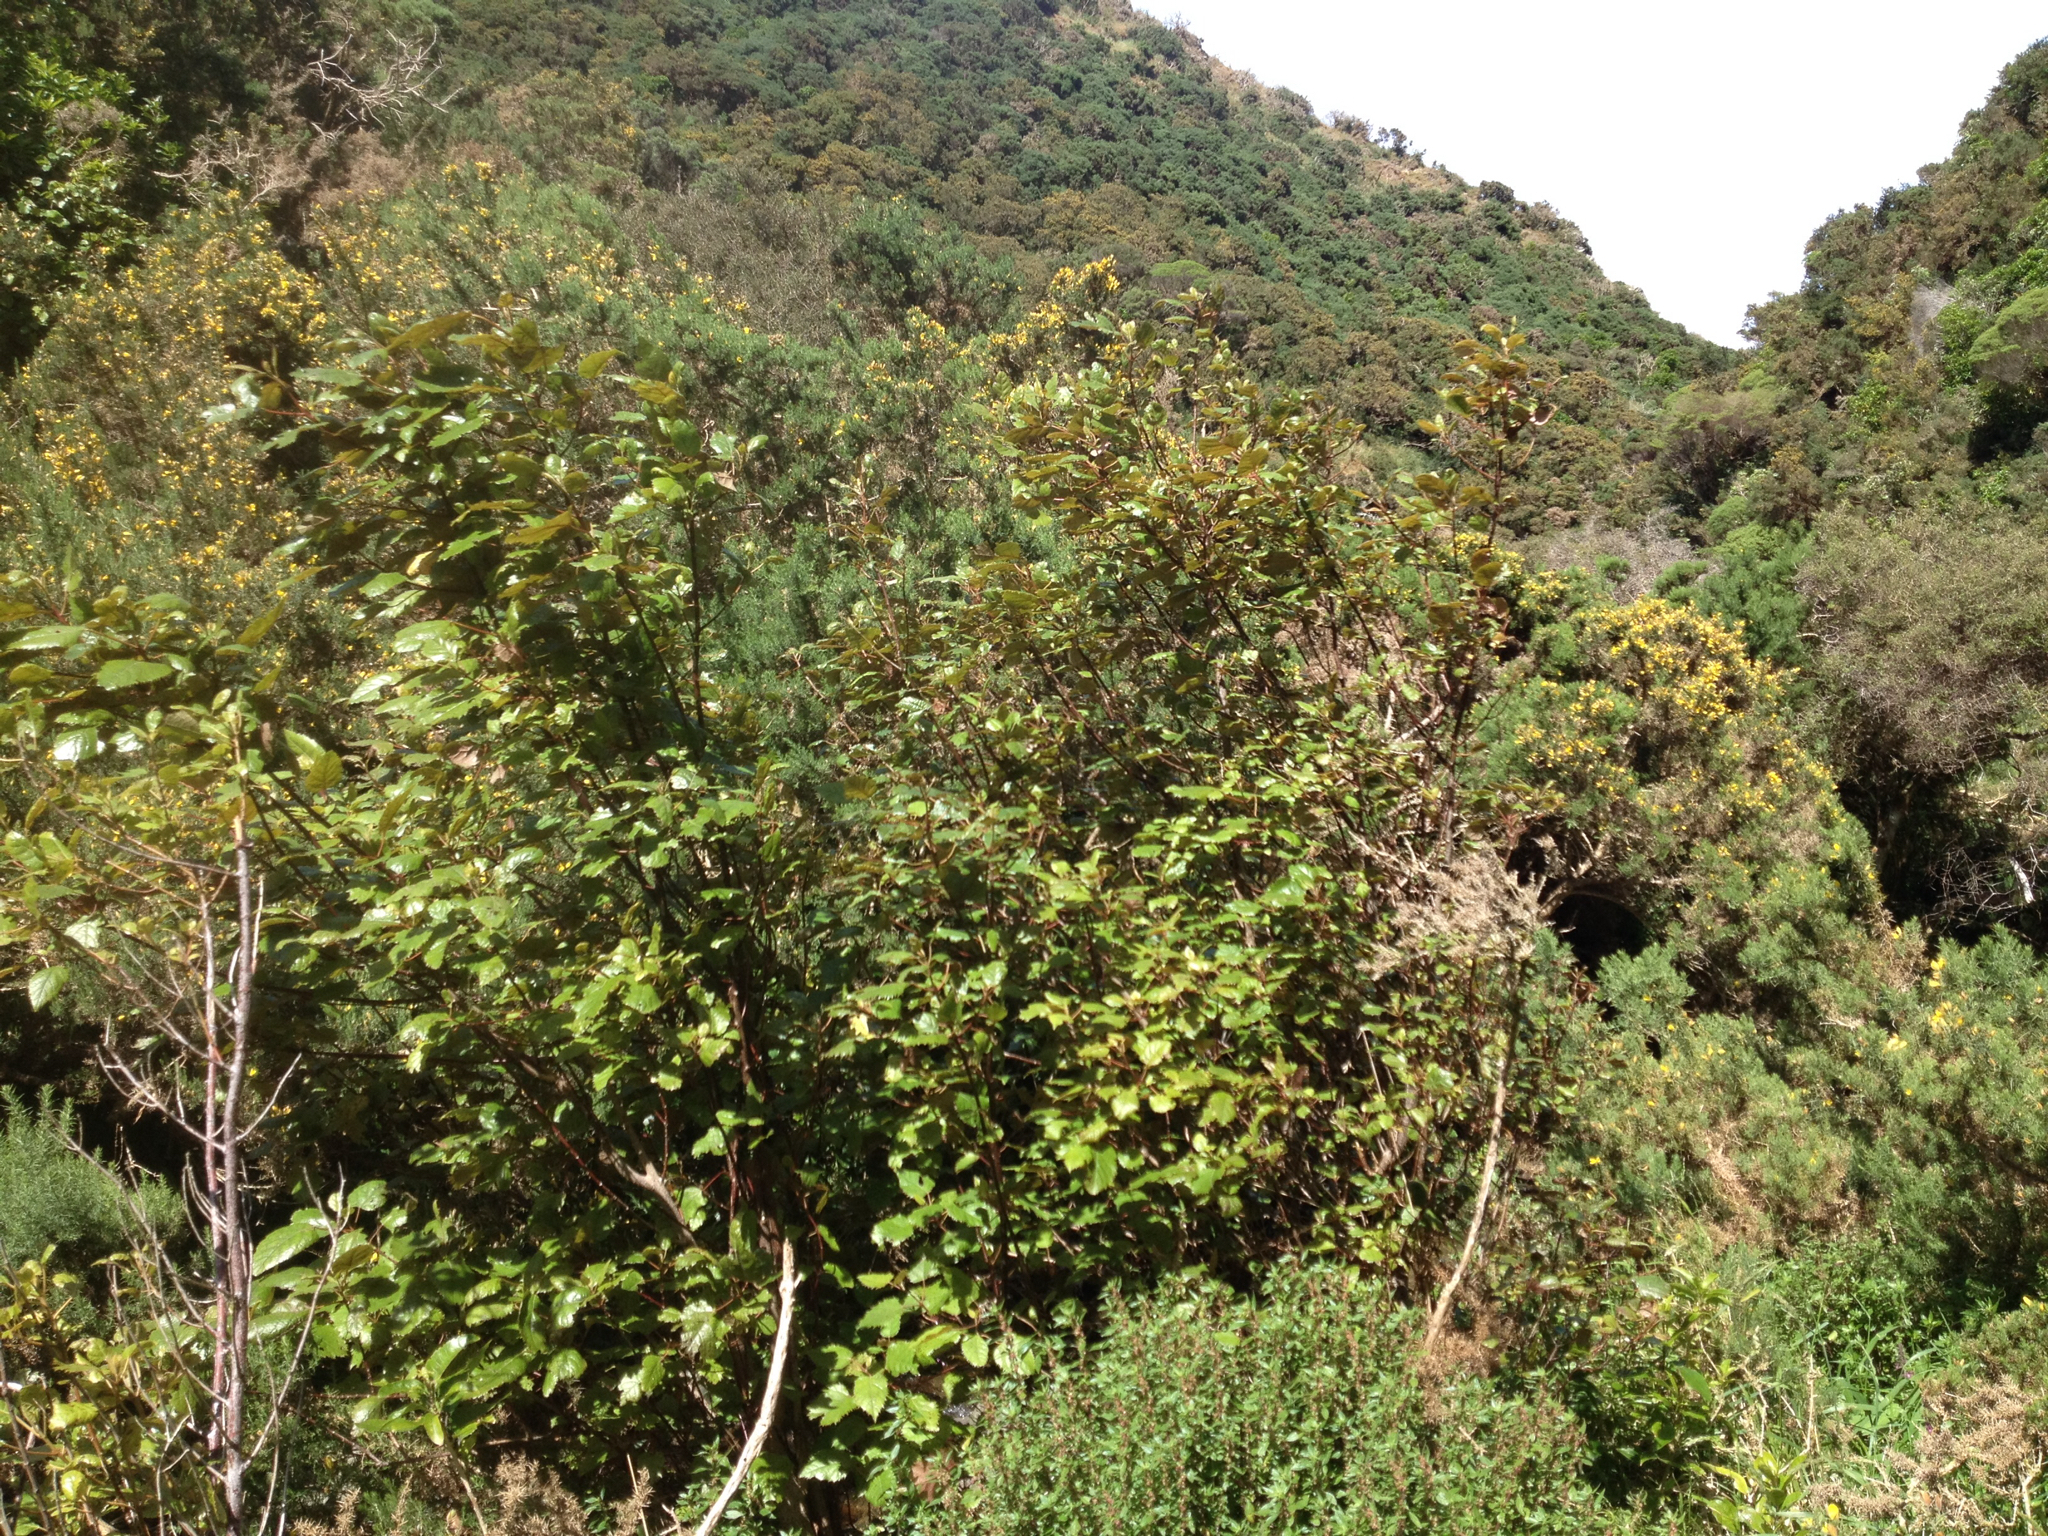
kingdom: Plantae
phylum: Tracheophyta
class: Magnoliopsida
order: Oxalidales
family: Elaeocarpaceae
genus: Aristotelia
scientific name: Aristotelia serrata
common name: New zealand wineberry
